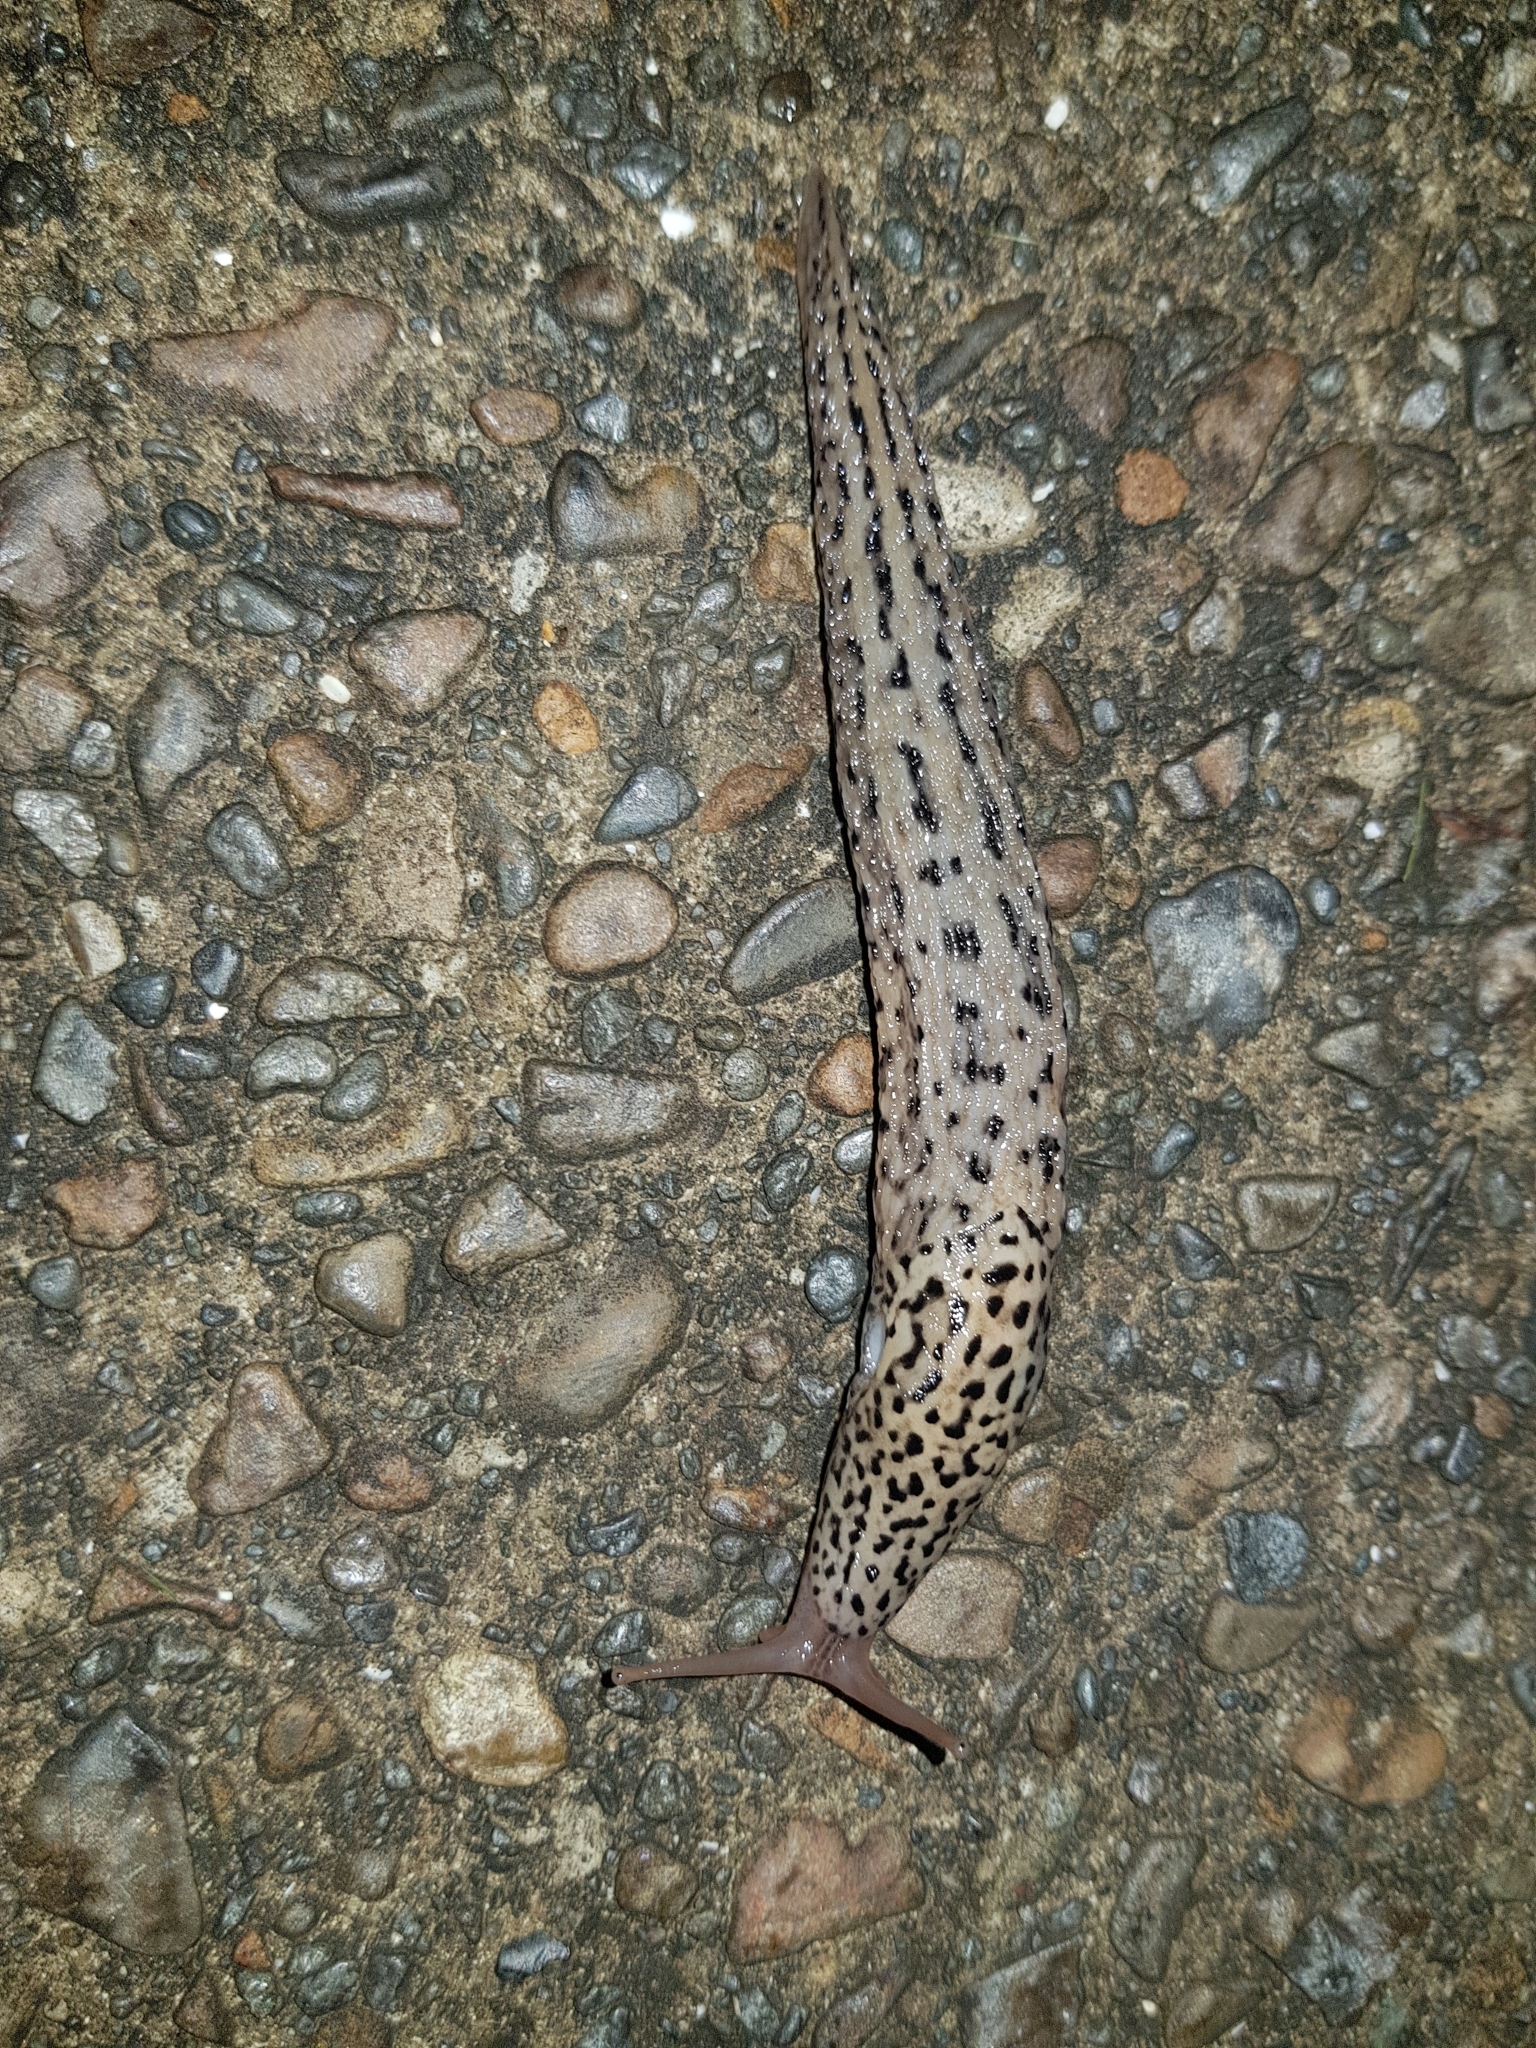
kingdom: Animalia
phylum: Mollusca
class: Gastropoda
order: Stylommatophora
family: Limacidae
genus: Limax
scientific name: Limax maximus
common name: Great grey slug
